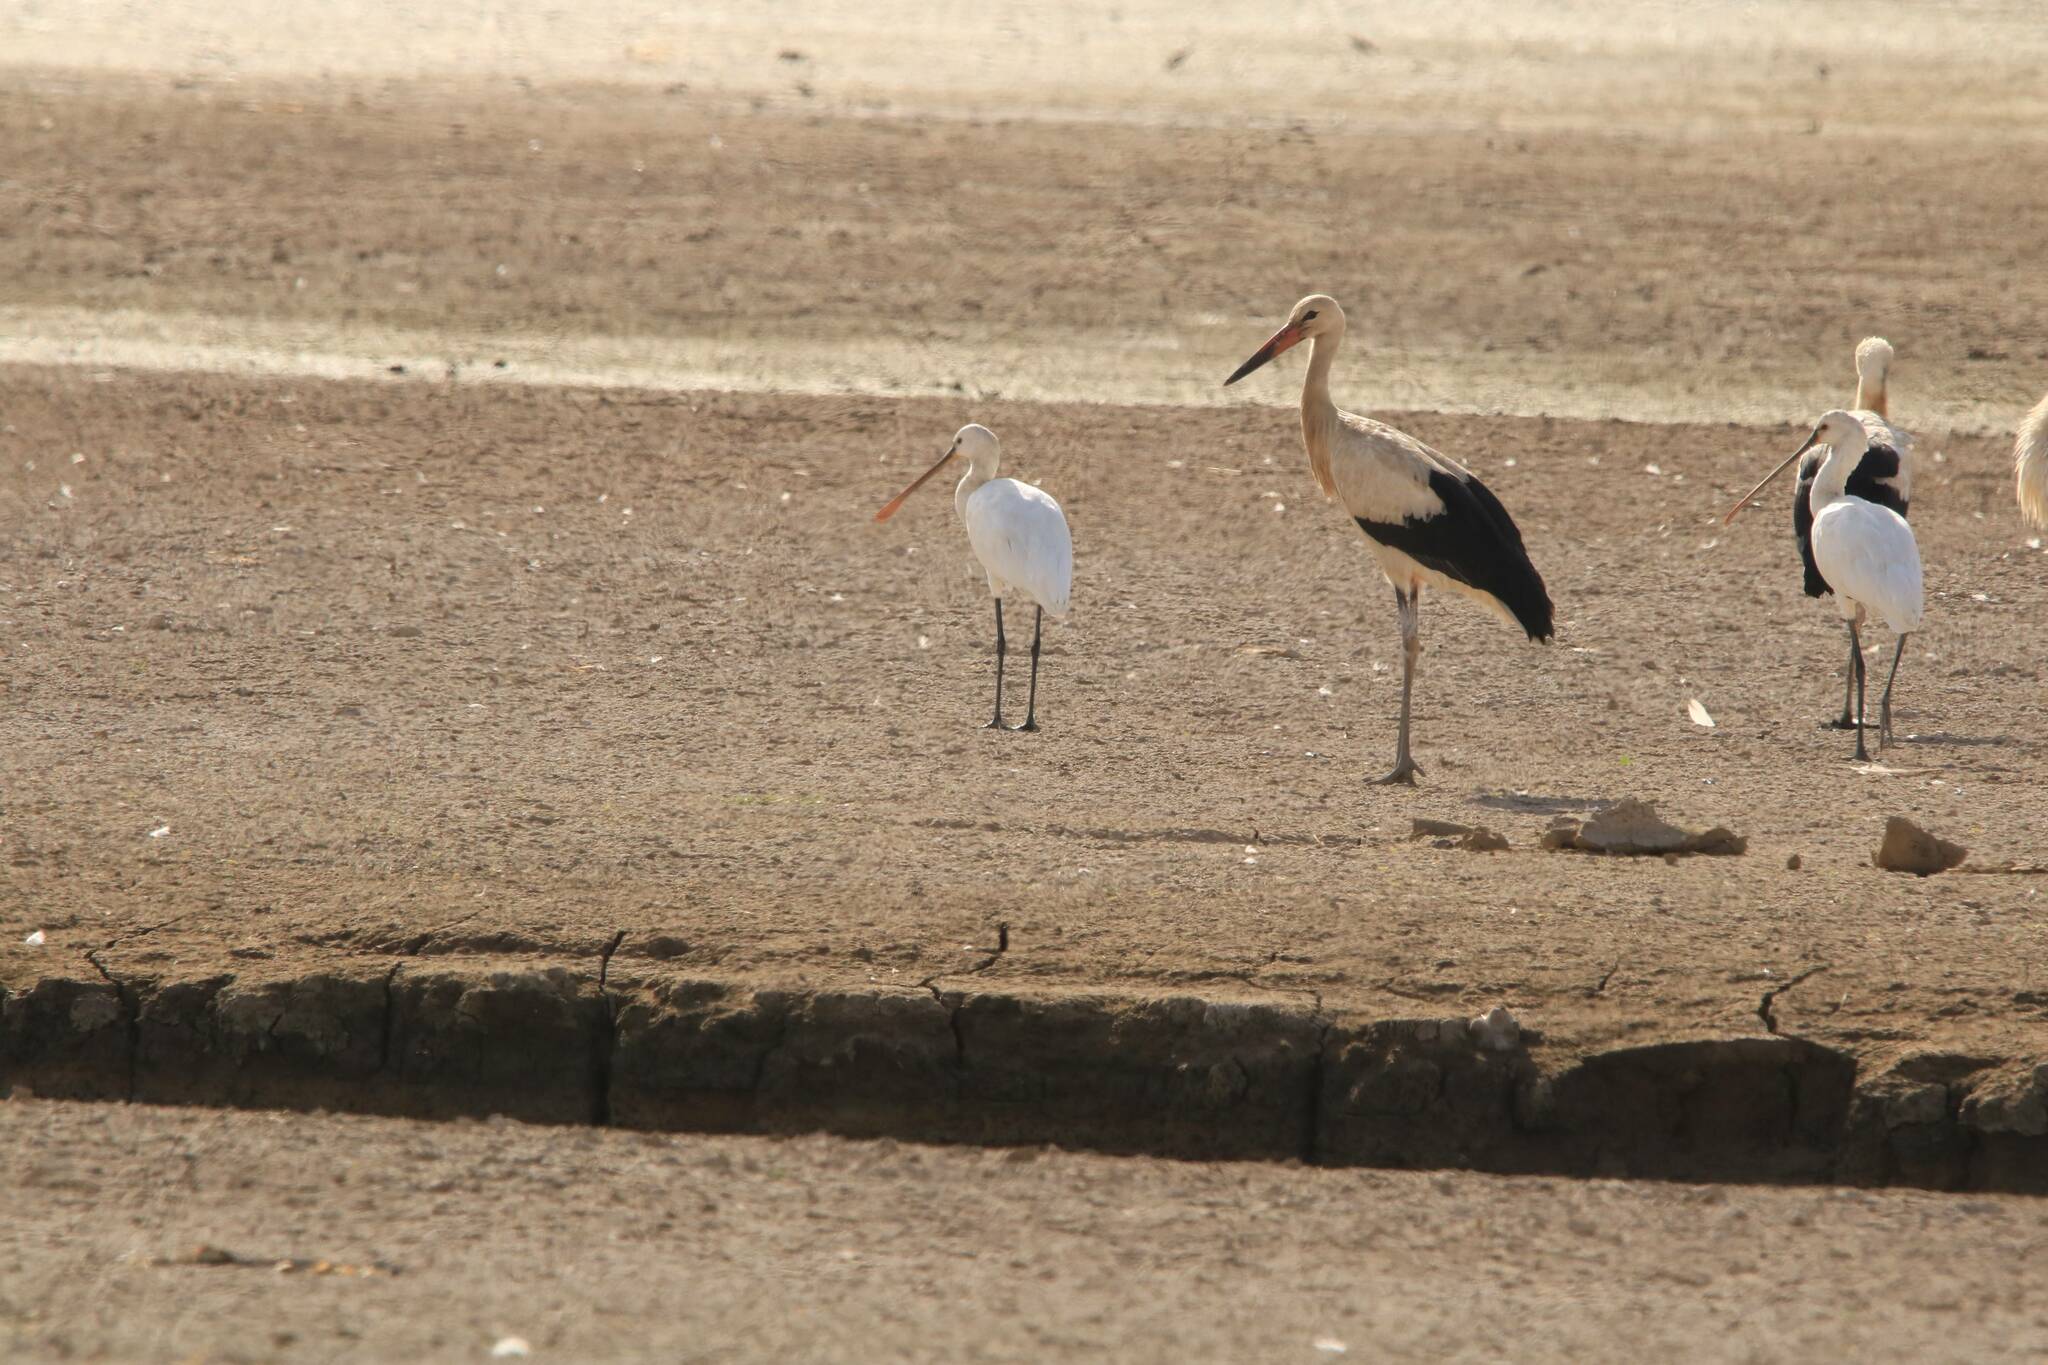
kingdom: Animalia
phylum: Chordata
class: Aves
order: Ciconiiformes
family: Ciconiidae
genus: Ciconia
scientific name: Ciconia ciconia
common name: White stork
